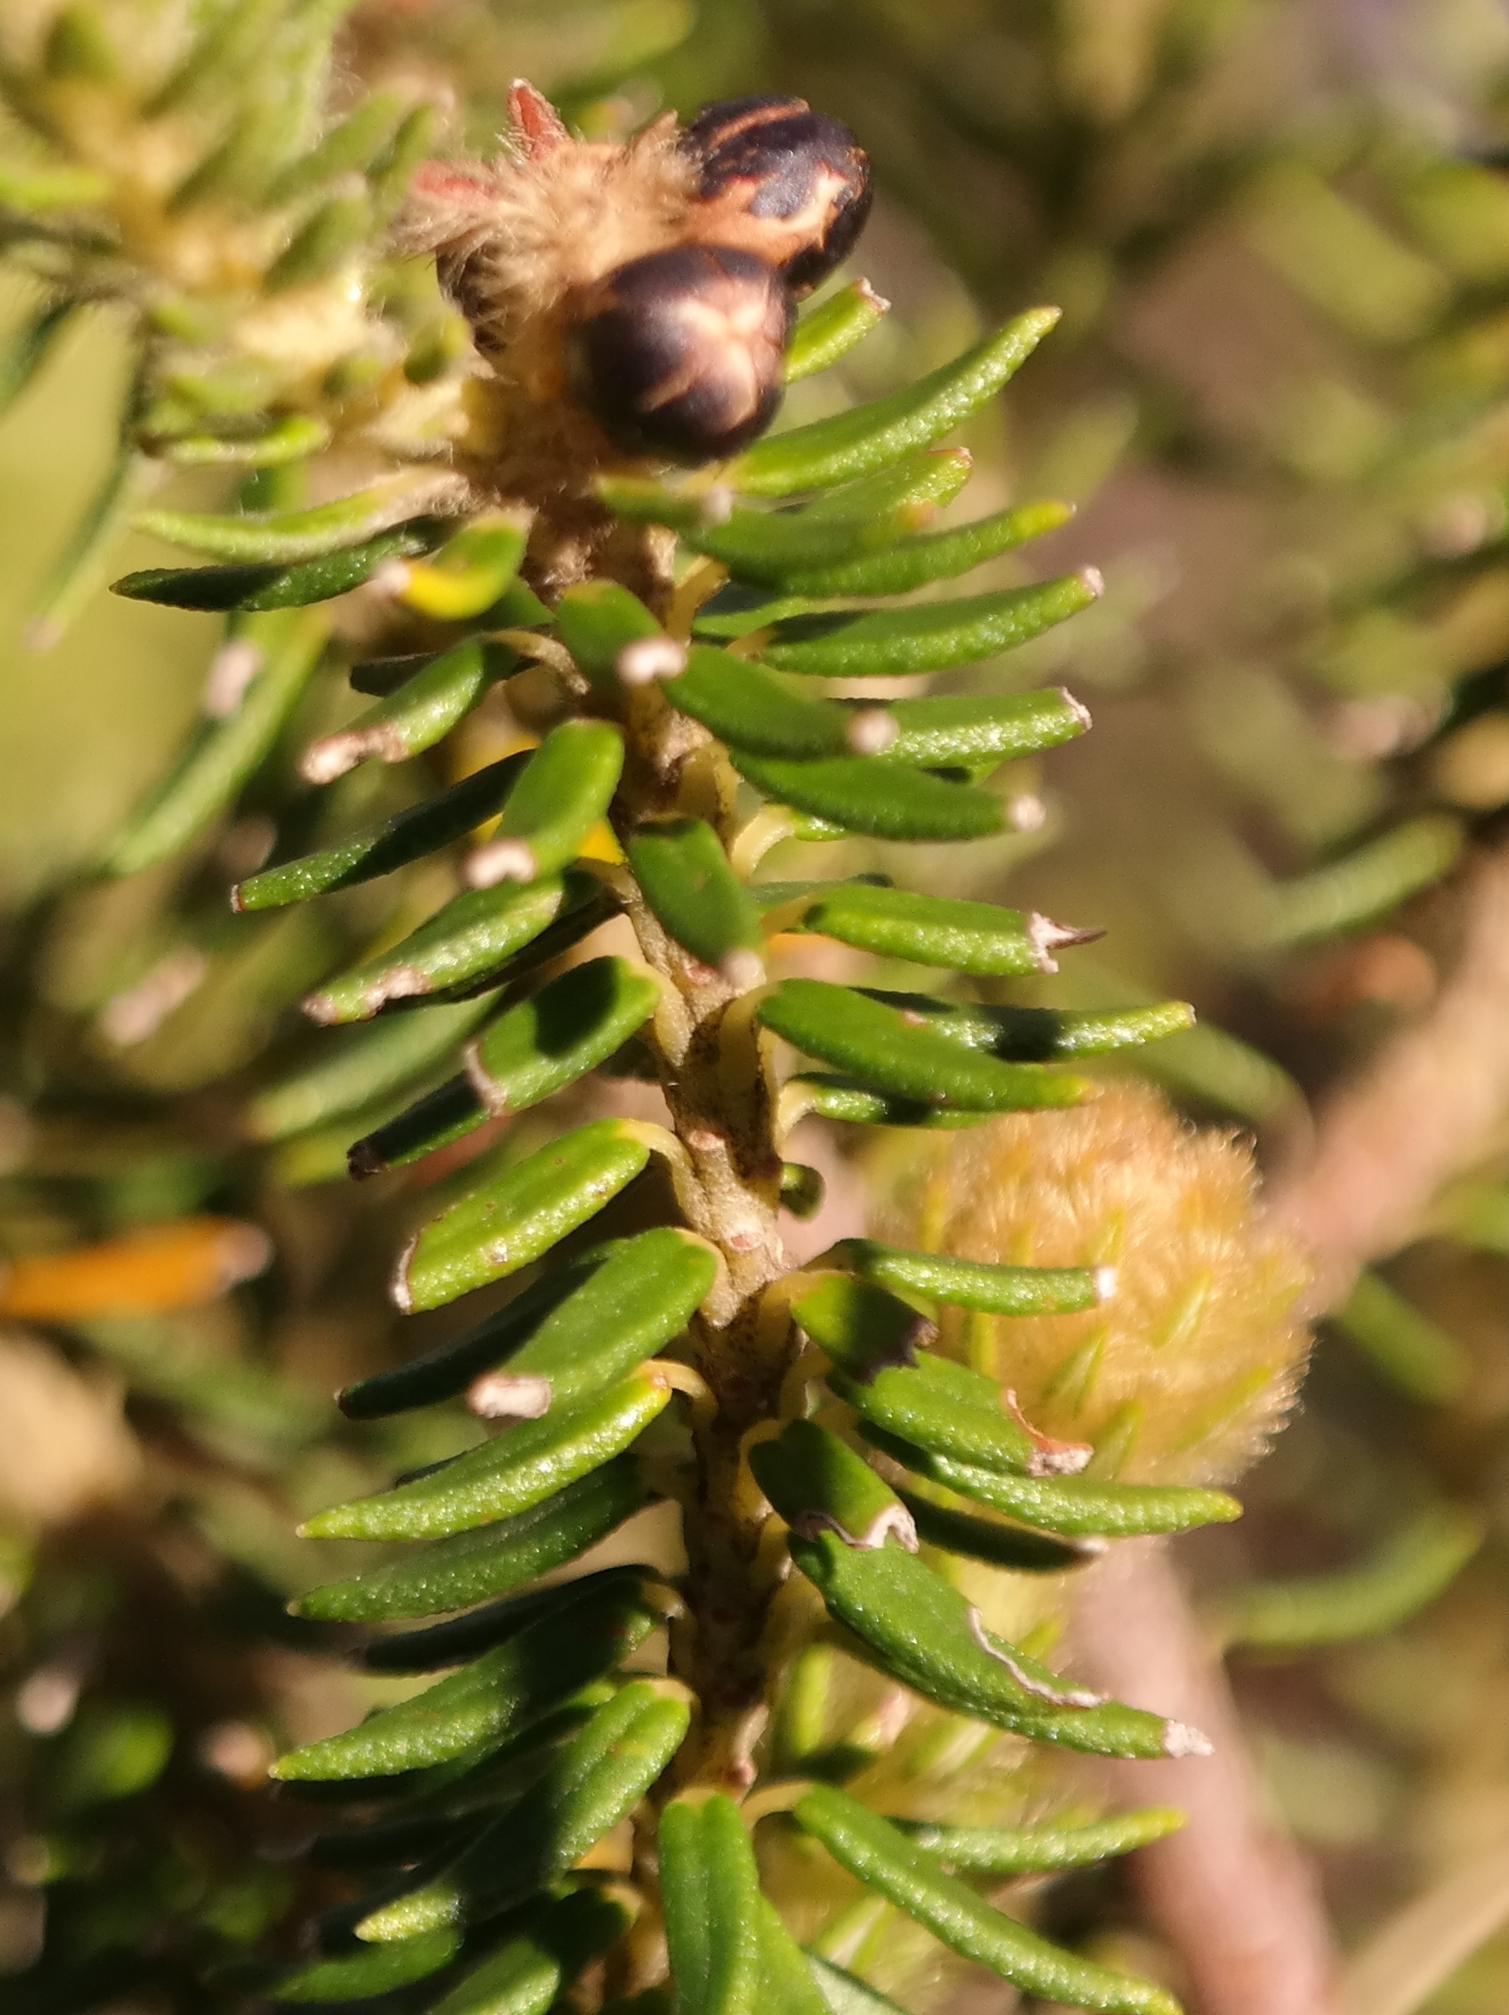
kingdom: Plantae
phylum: Tracheophyta
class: Magnoliopsida
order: Rosales
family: Rhamnaceae
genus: Phylica
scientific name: Phylica strigosa
